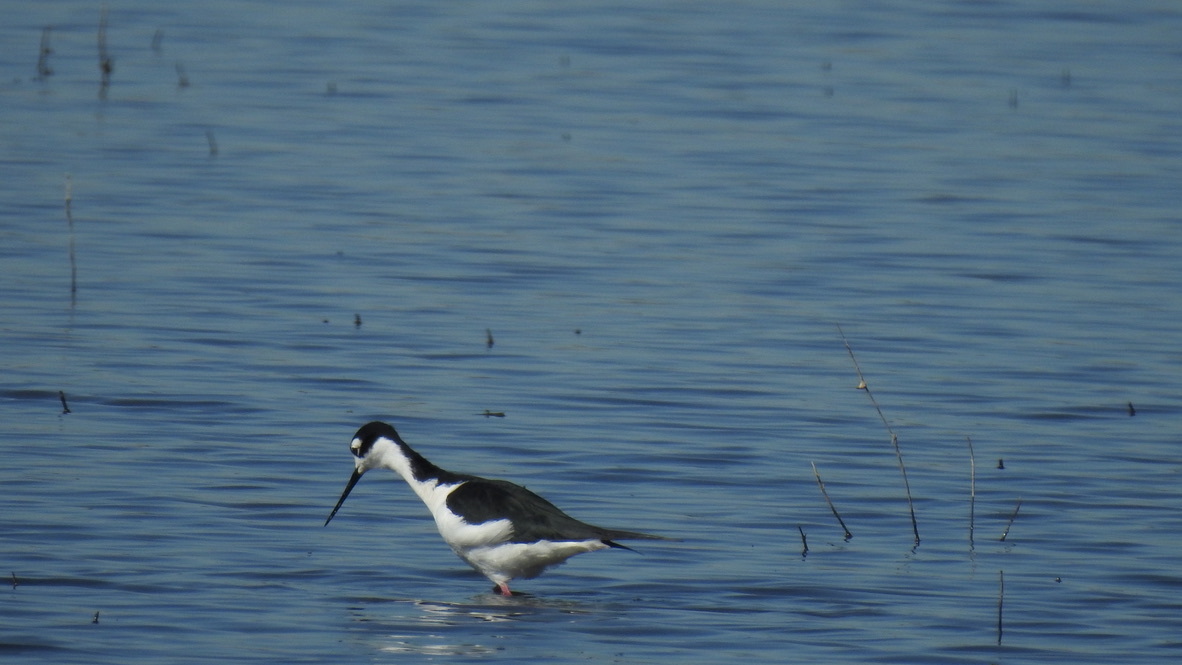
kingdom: Animalia
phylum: Chordata
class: Aves
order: Charadriiformes
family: Recurvirostridae
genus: Himantopus
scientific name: Himantopus mexicanus
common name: Black-necked stilt
